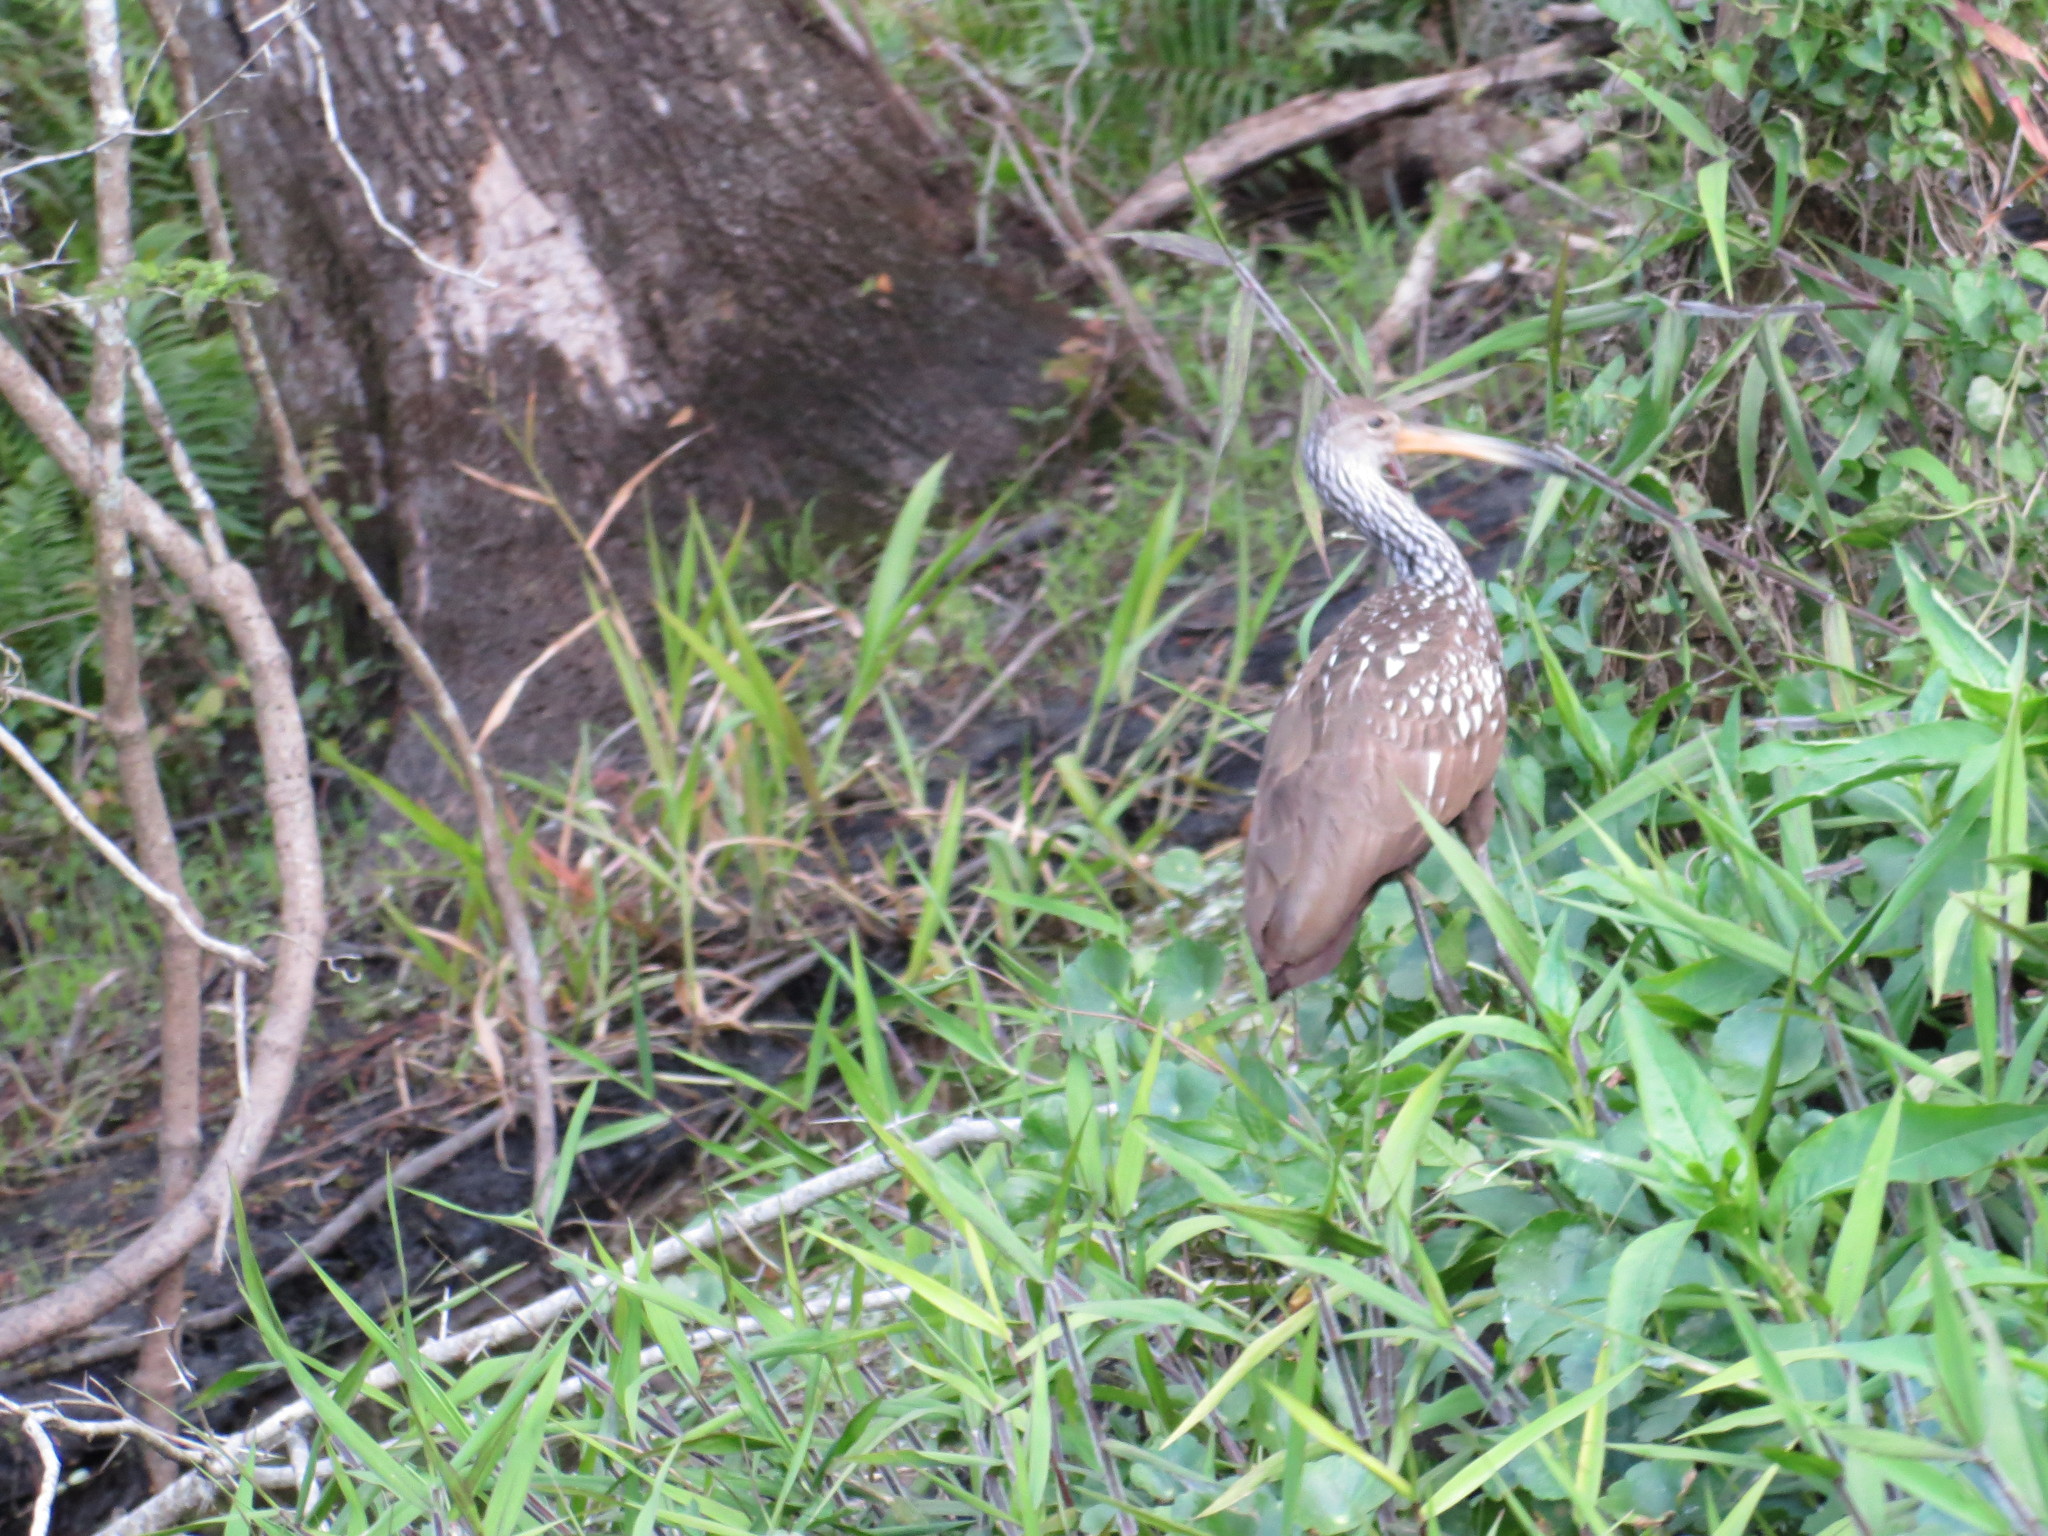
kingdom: Animalia
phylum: Chordata
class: Aves
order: Gruiformes
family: Aramidae
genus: Aramus
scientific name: Aramus guarauna
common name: Limpkin
